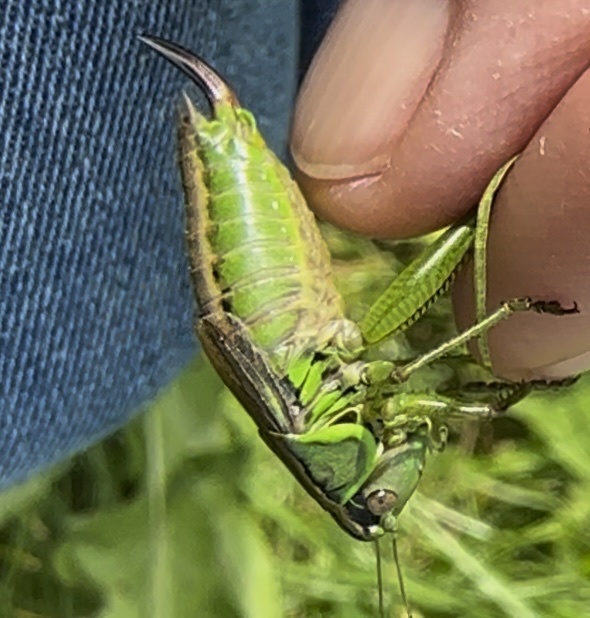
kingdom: Animalia
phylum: Arthropoda
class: Insecta
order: Orthoptera
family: Tettigoniidae
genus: Roeseliana
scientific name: Roeseliana roeselii
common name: Roesel's bush cricket
